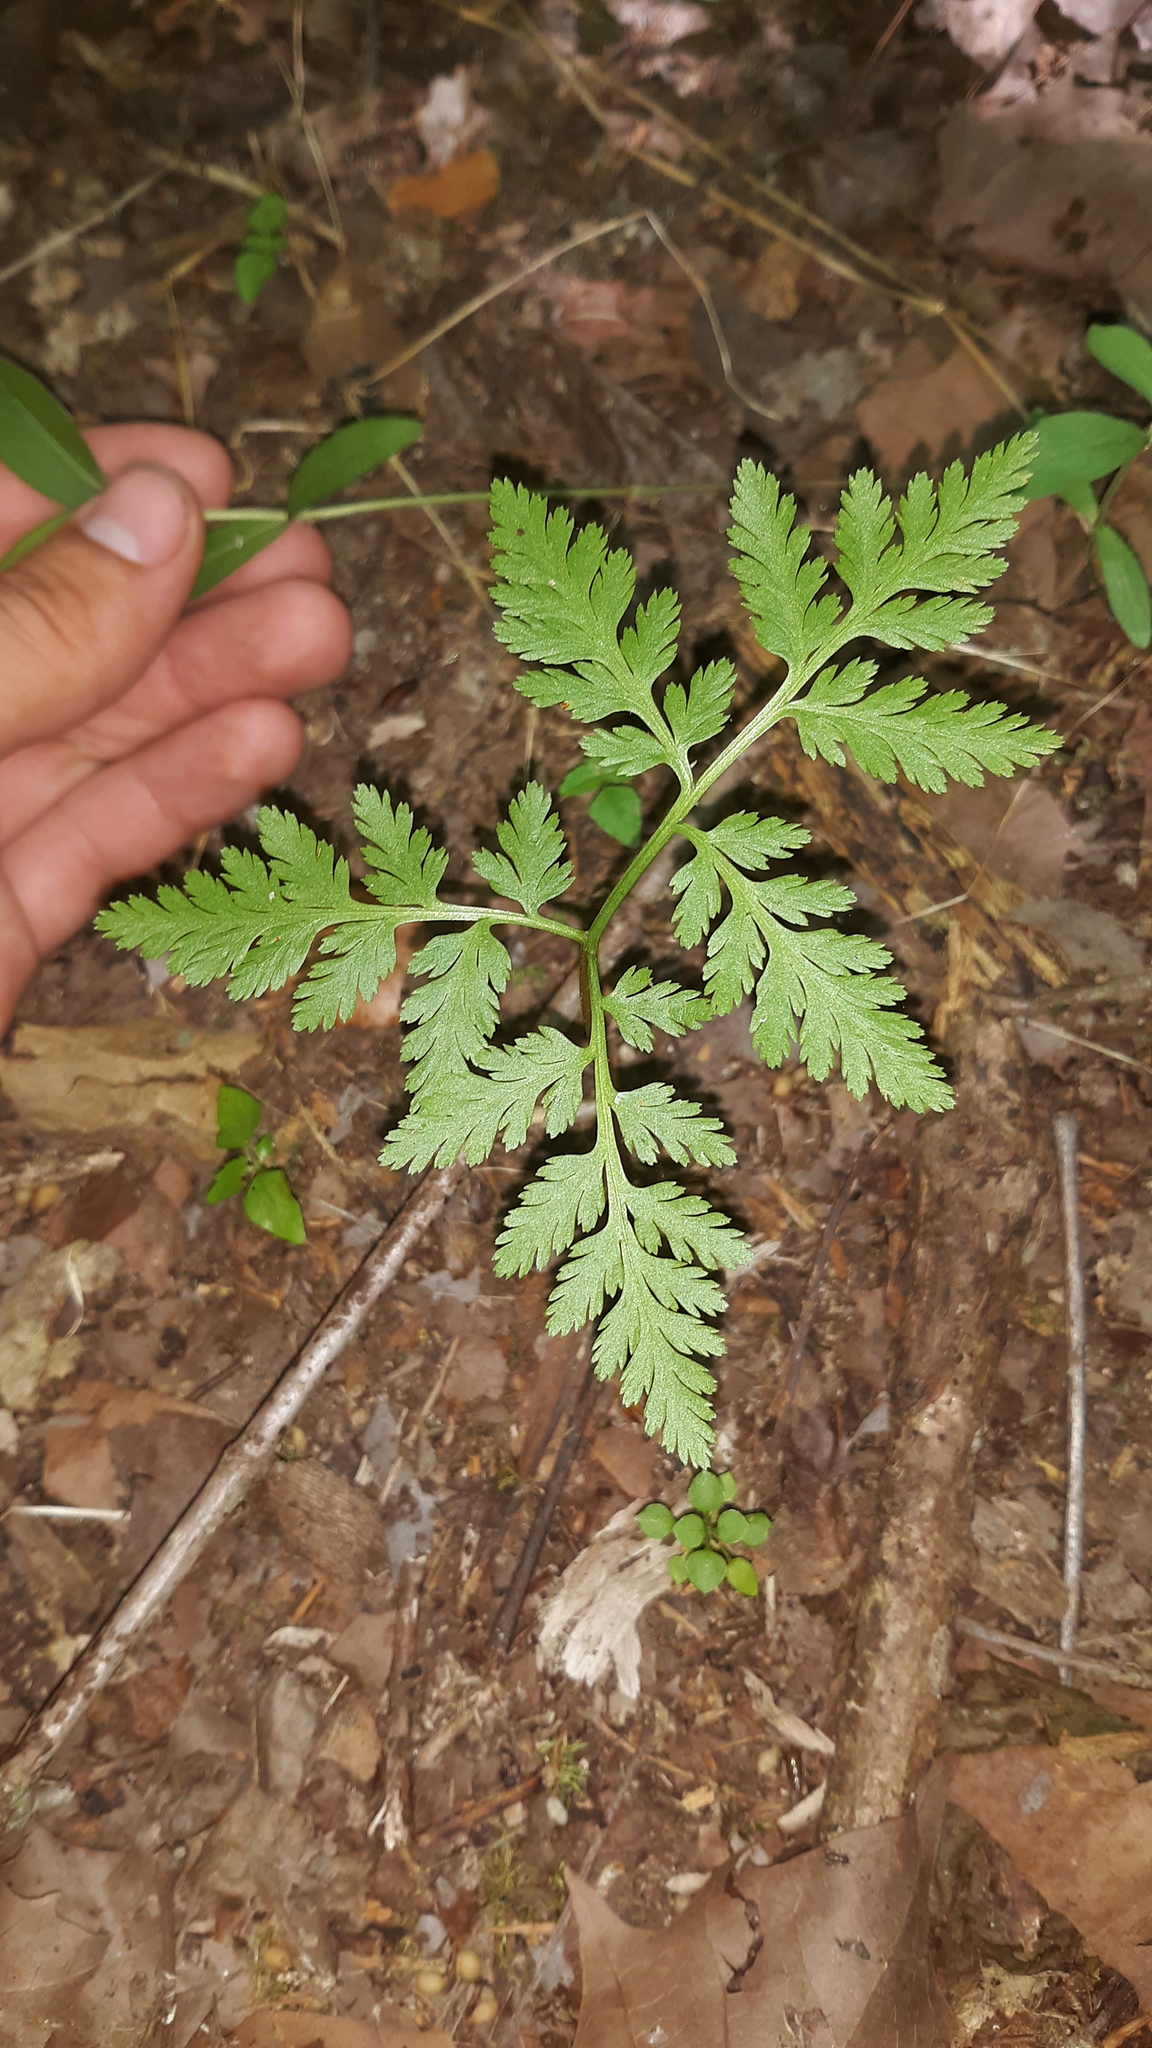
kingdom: Plantae
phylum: Tracheophyta
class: Polypodiopsida
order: Ophioglossales
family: Ophioglossaceae
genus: Botrypus
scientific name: Botrypus virginianus
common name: Common grapefern
